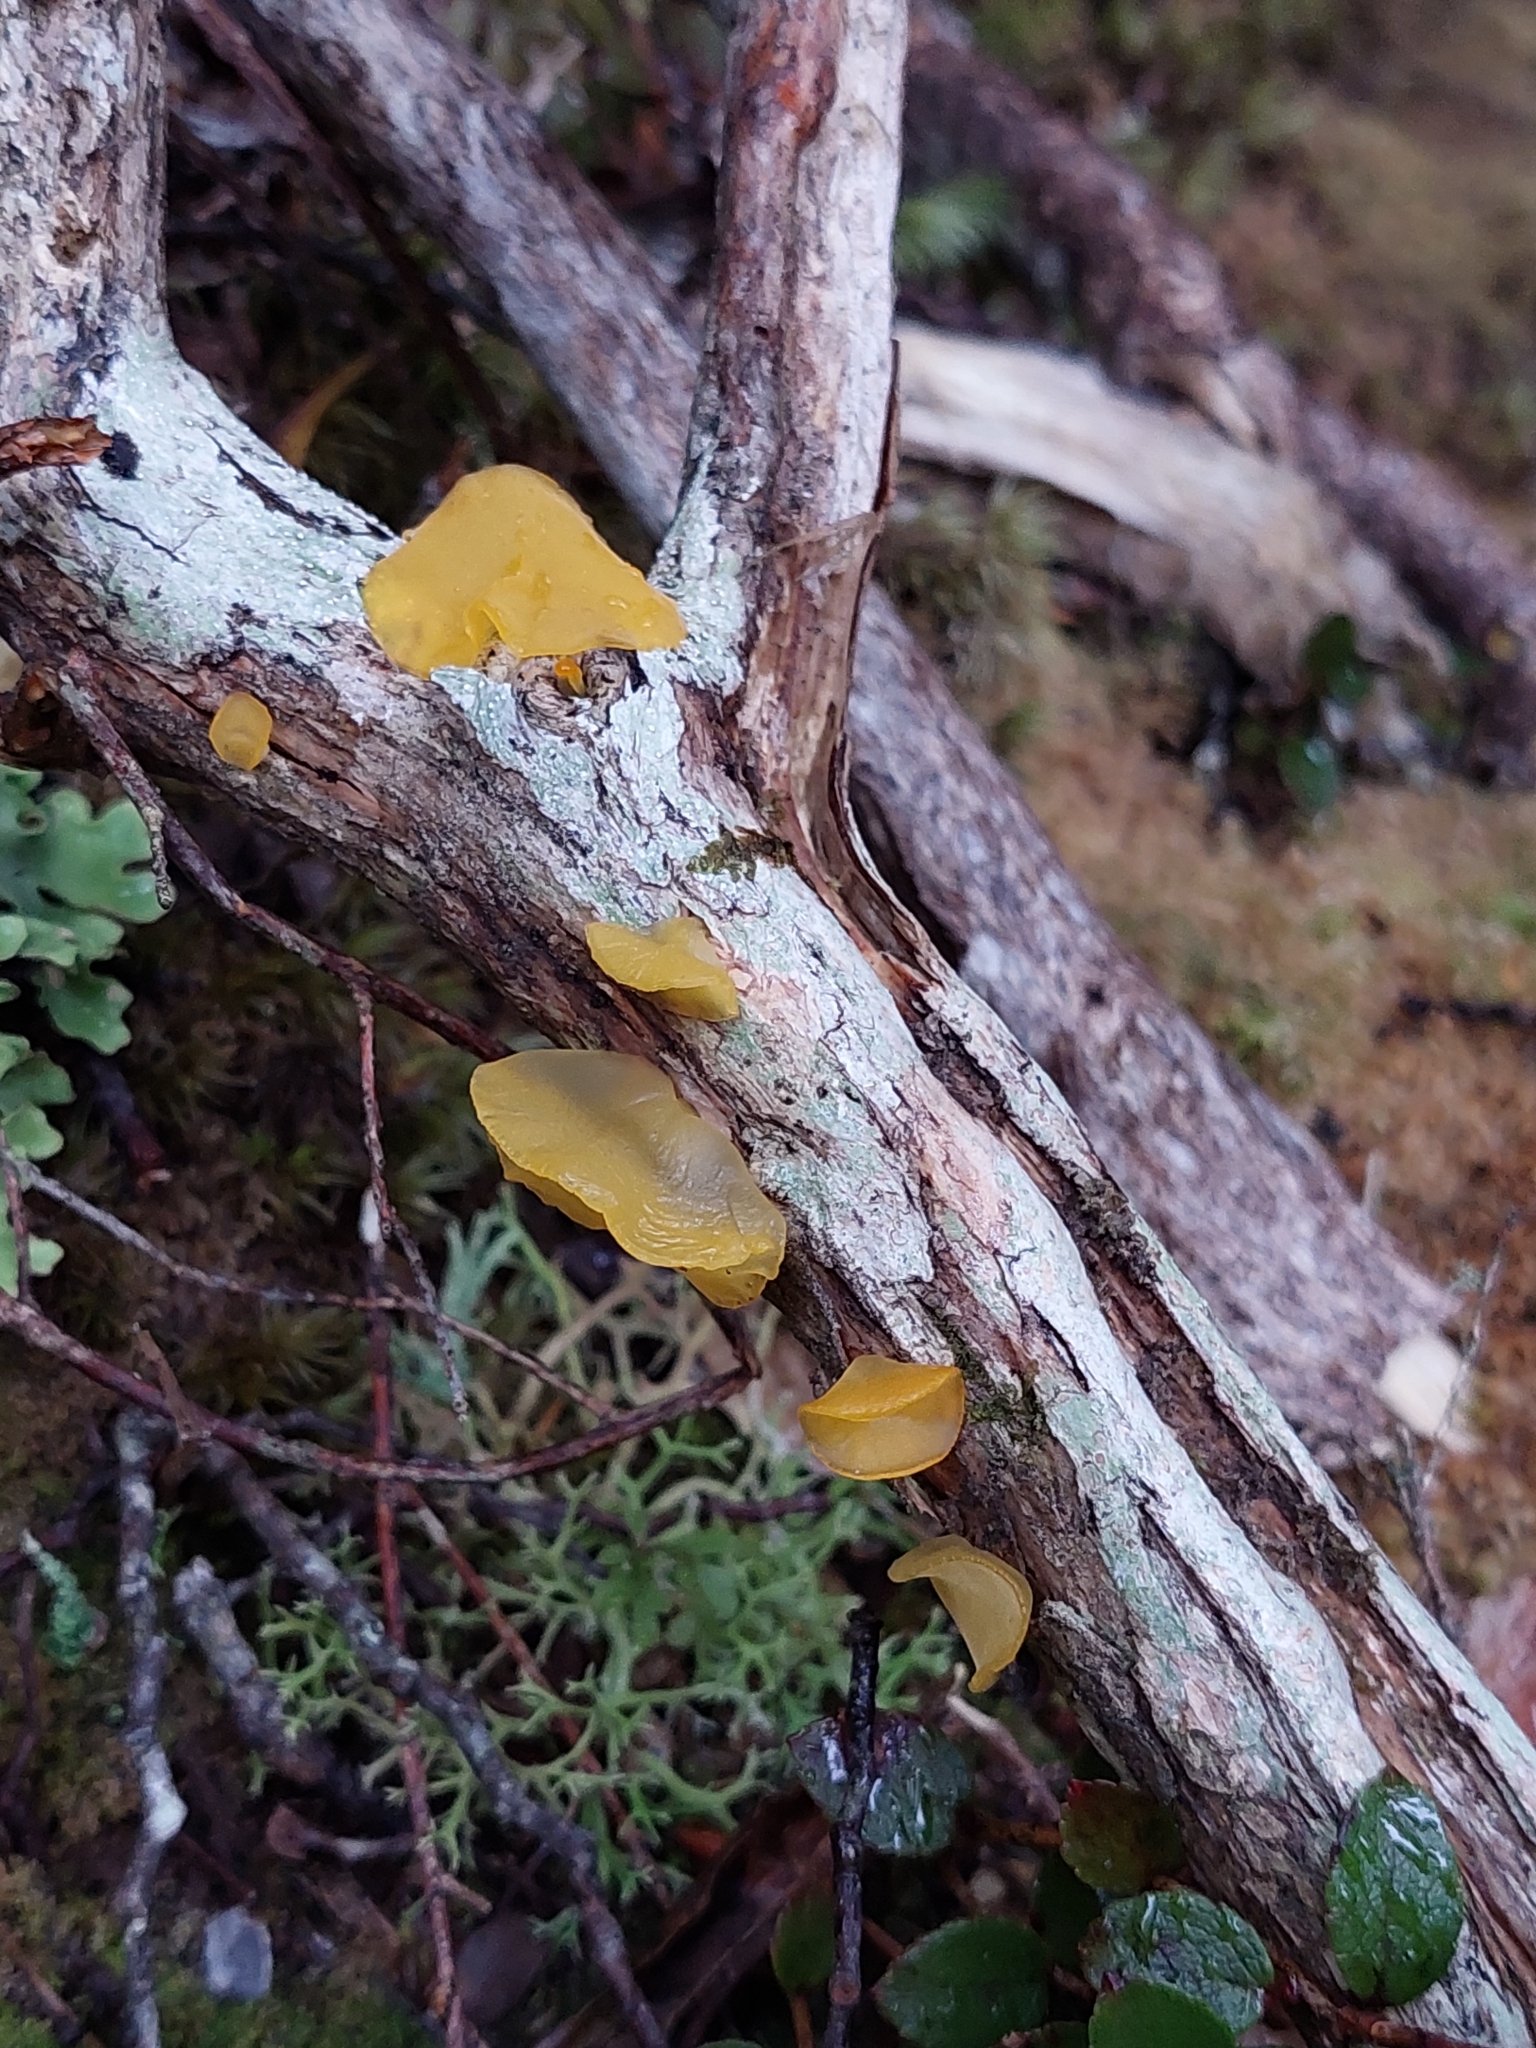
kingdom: Fungi
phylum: Basidiomycota
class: Dacrymycetes
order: Dacrymycetales
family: Dacrymycetaceae
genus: Heterotextus
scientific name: Heterotextus miltinus
